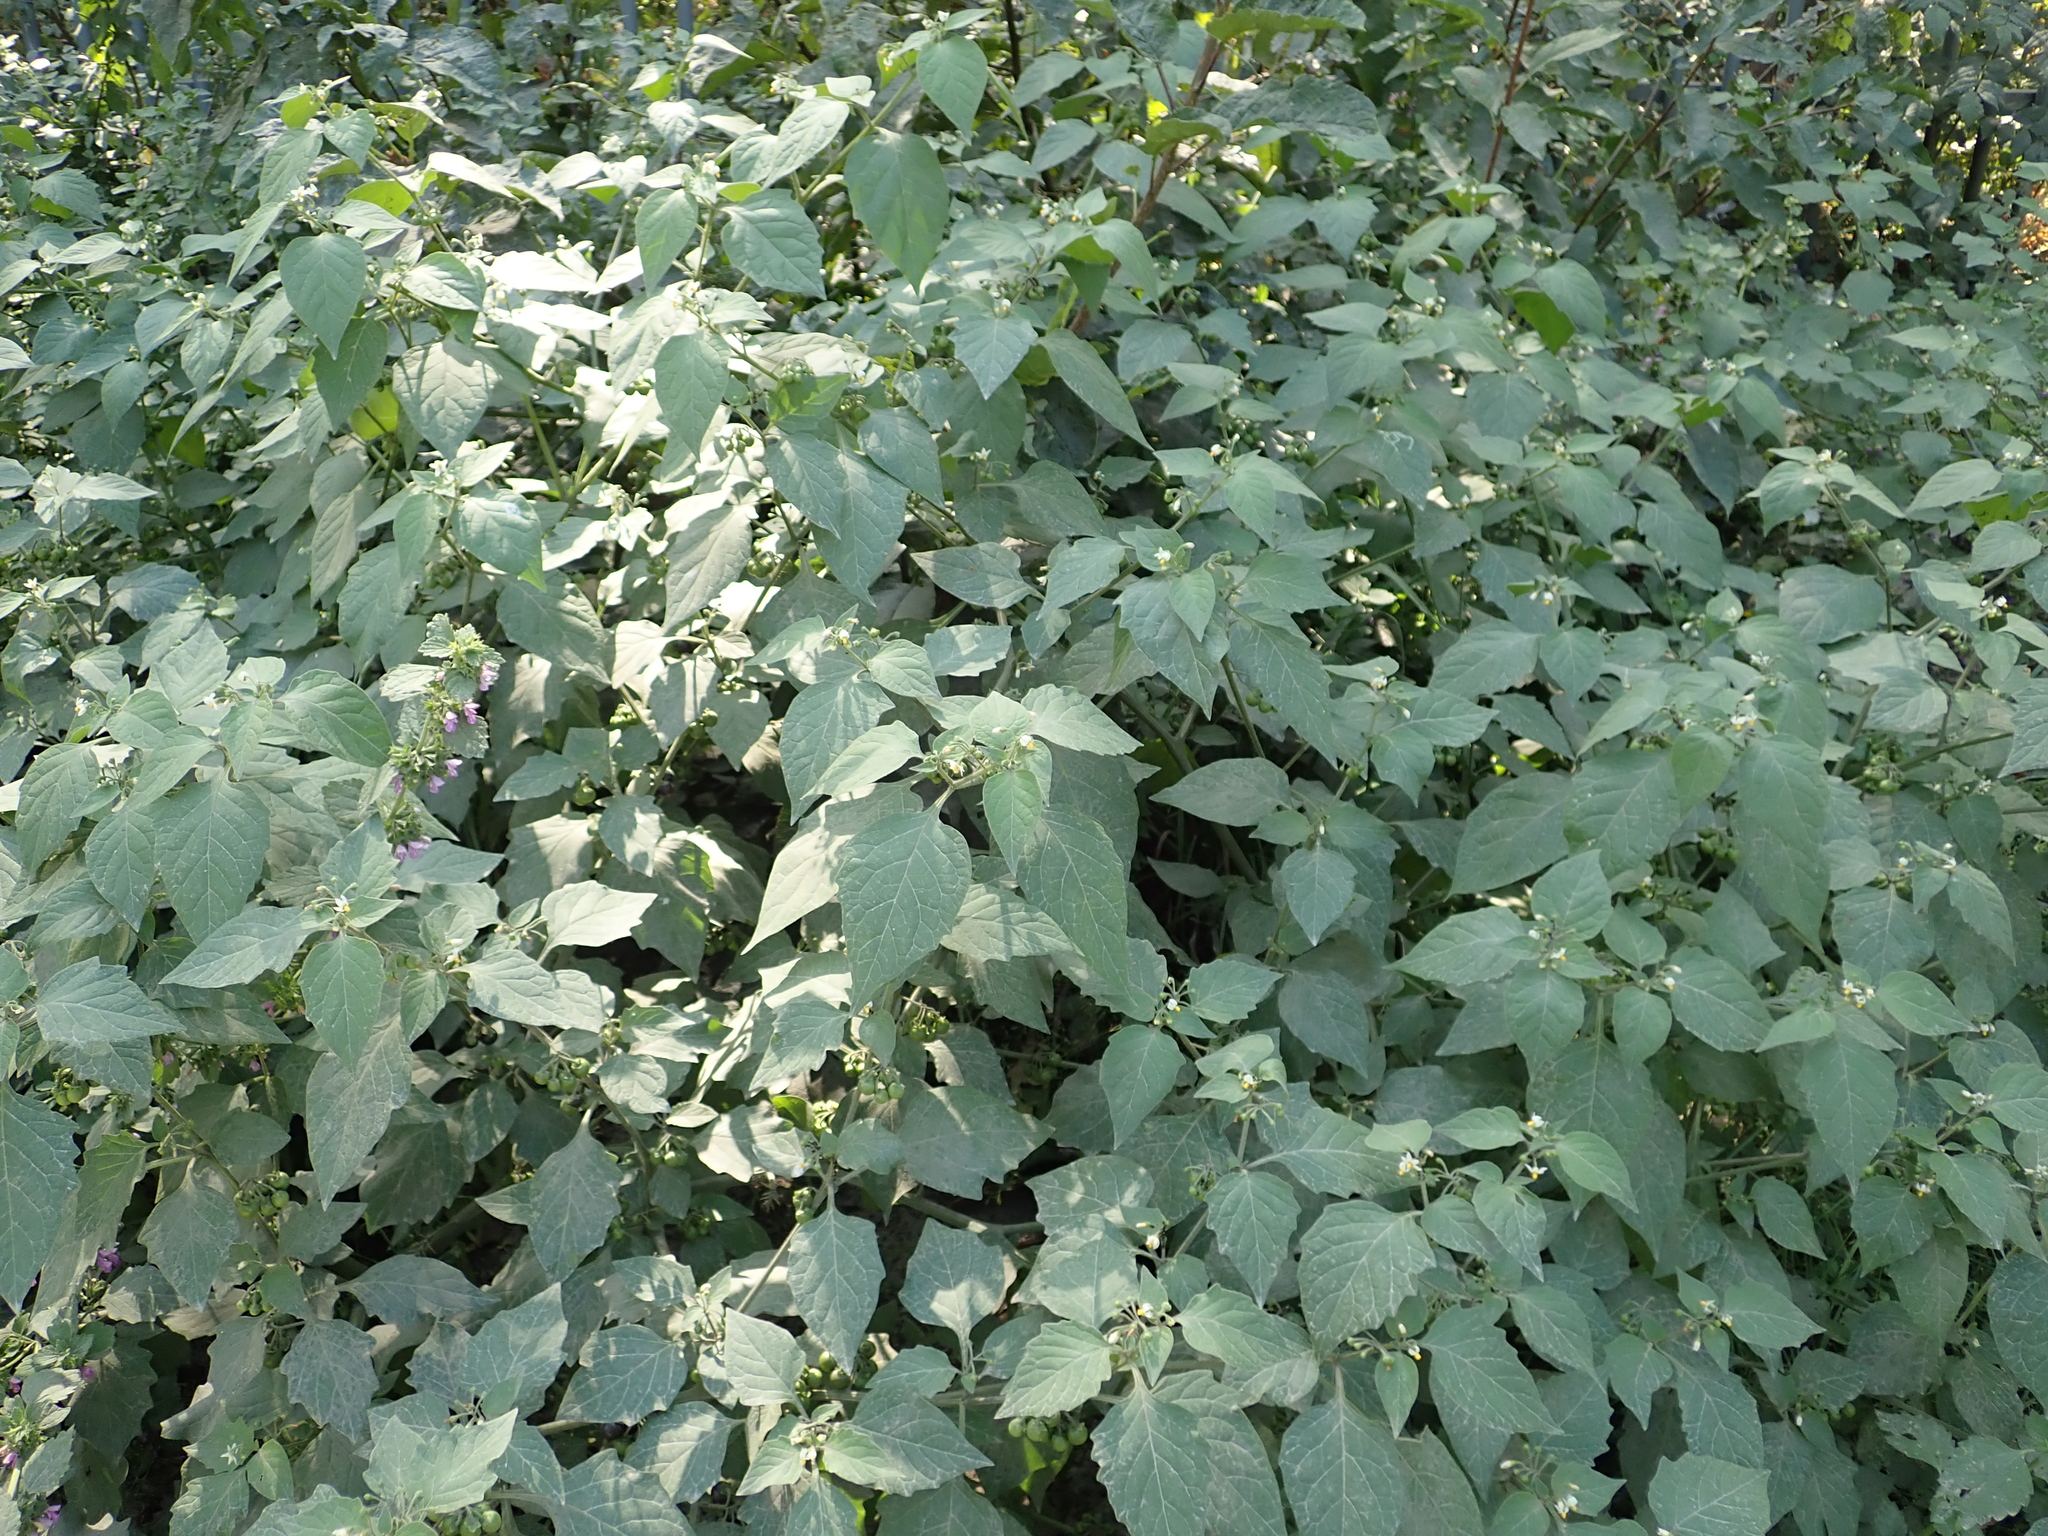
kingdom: Plantae
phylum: Tracheophyta
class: Magnoliopsida
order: Solanales
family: Solanaceae
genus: Solanum
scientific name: Solanum nigrum
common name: Black nightshade
